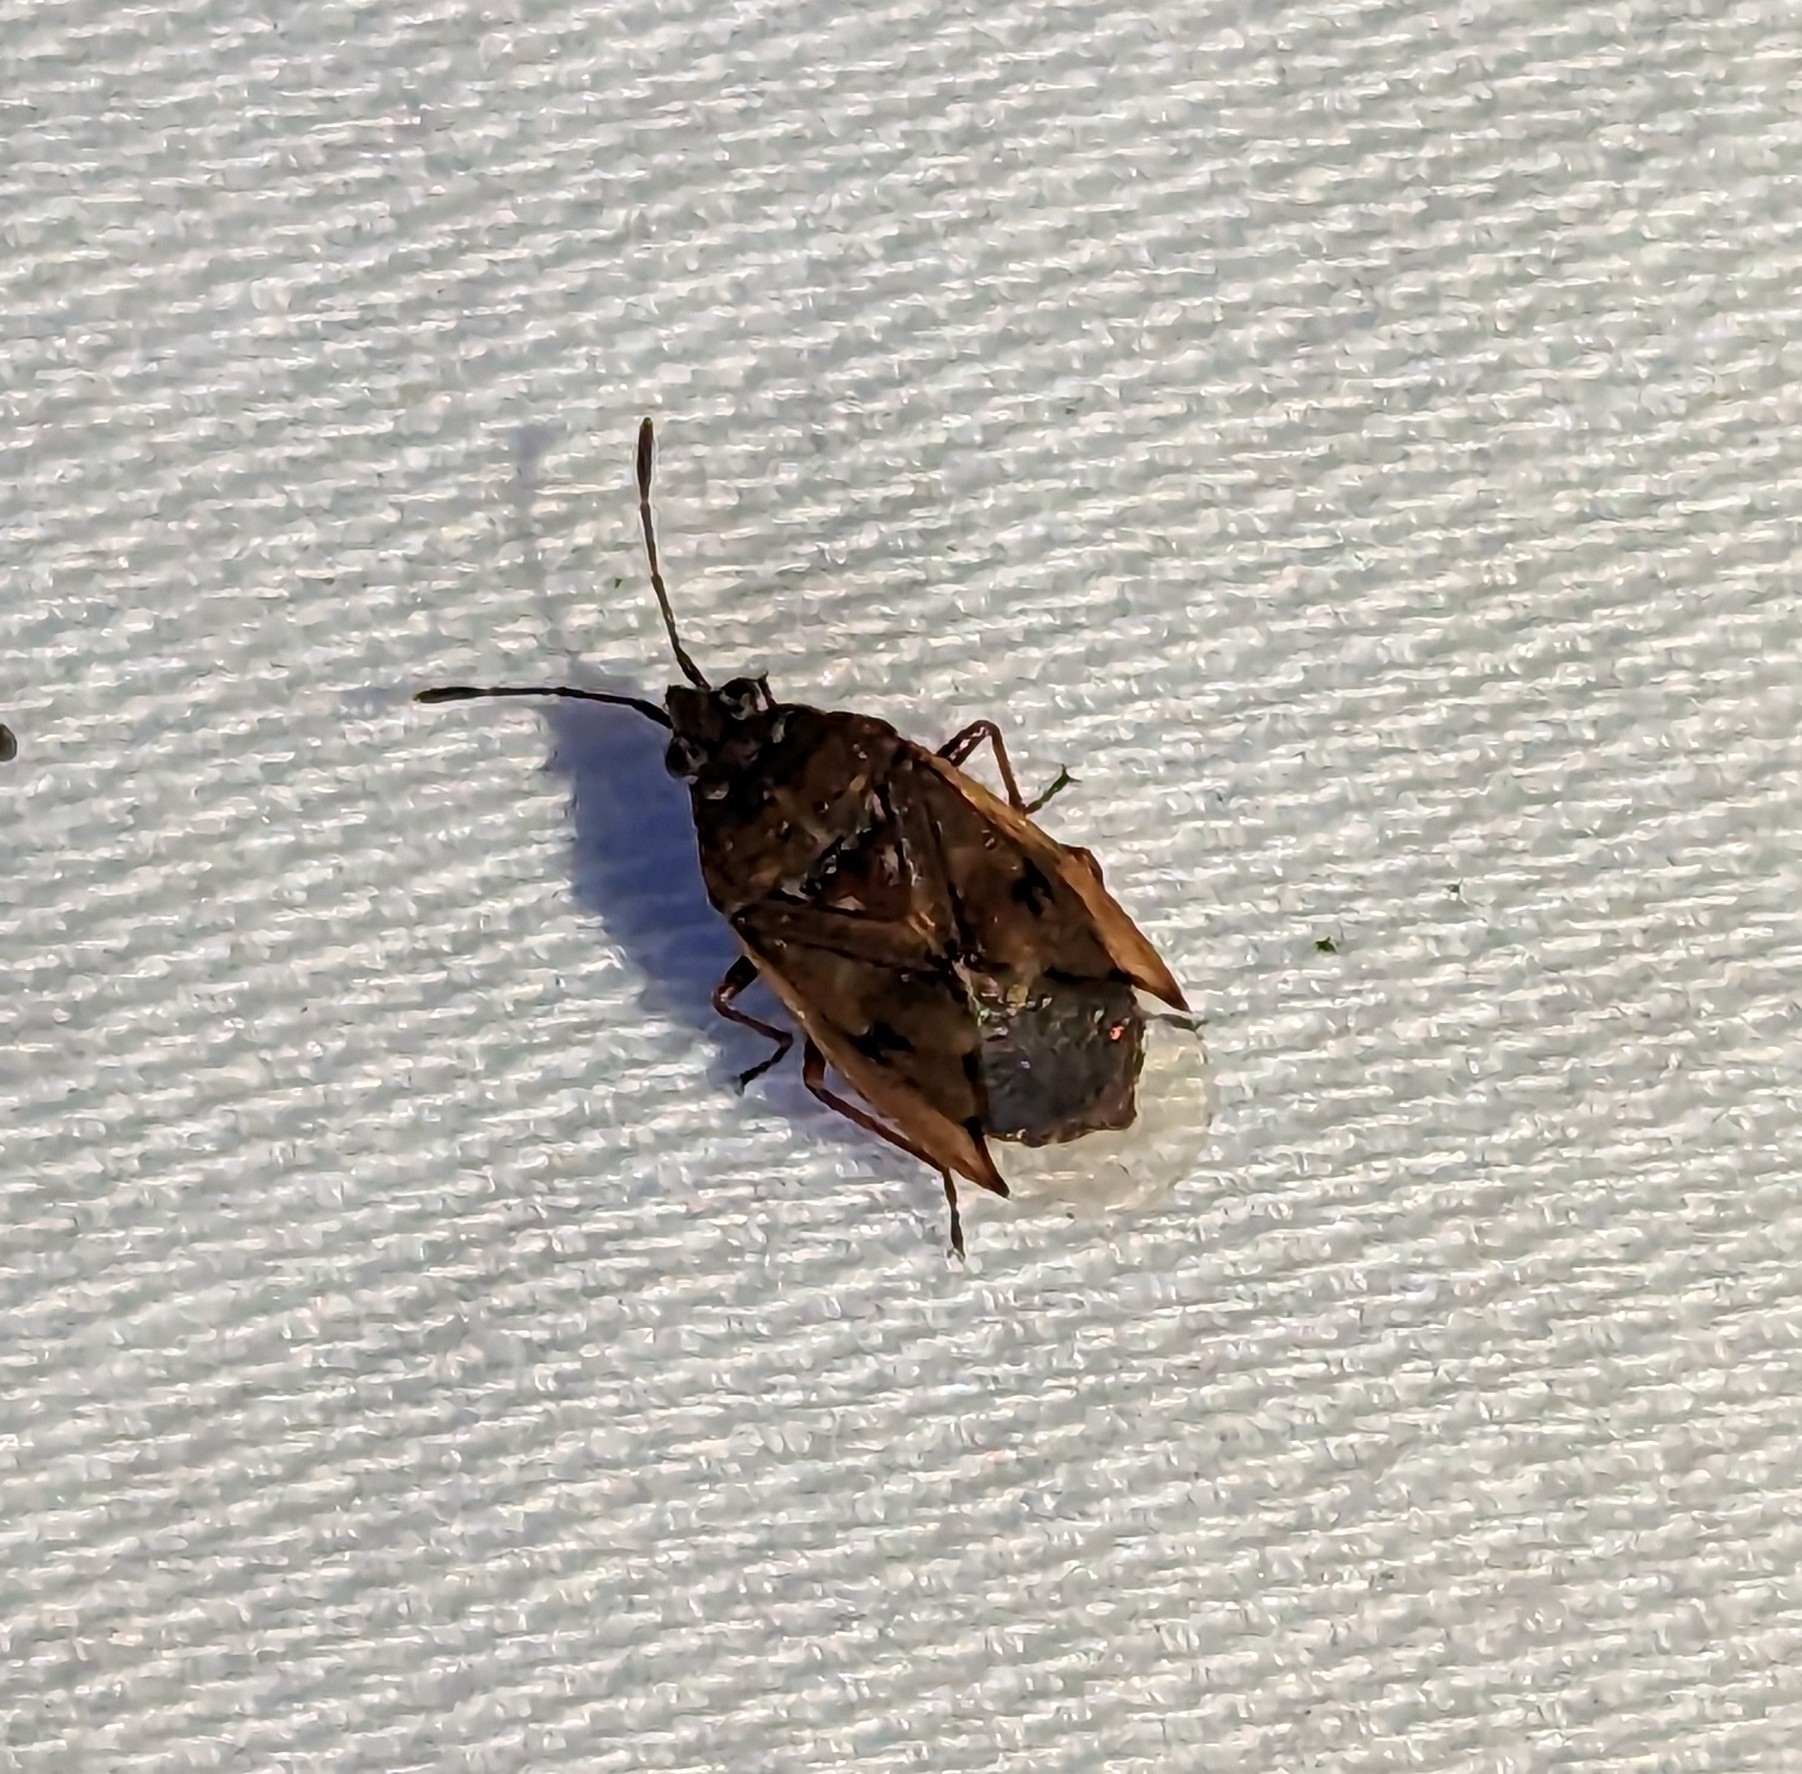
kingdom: Animalia
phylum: Arthropoda
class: Insecta
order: Hemiptera
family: Lygaeidae
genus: Kleidocerys
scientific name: Kleidocerys resedae
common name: Birch catkin bug
